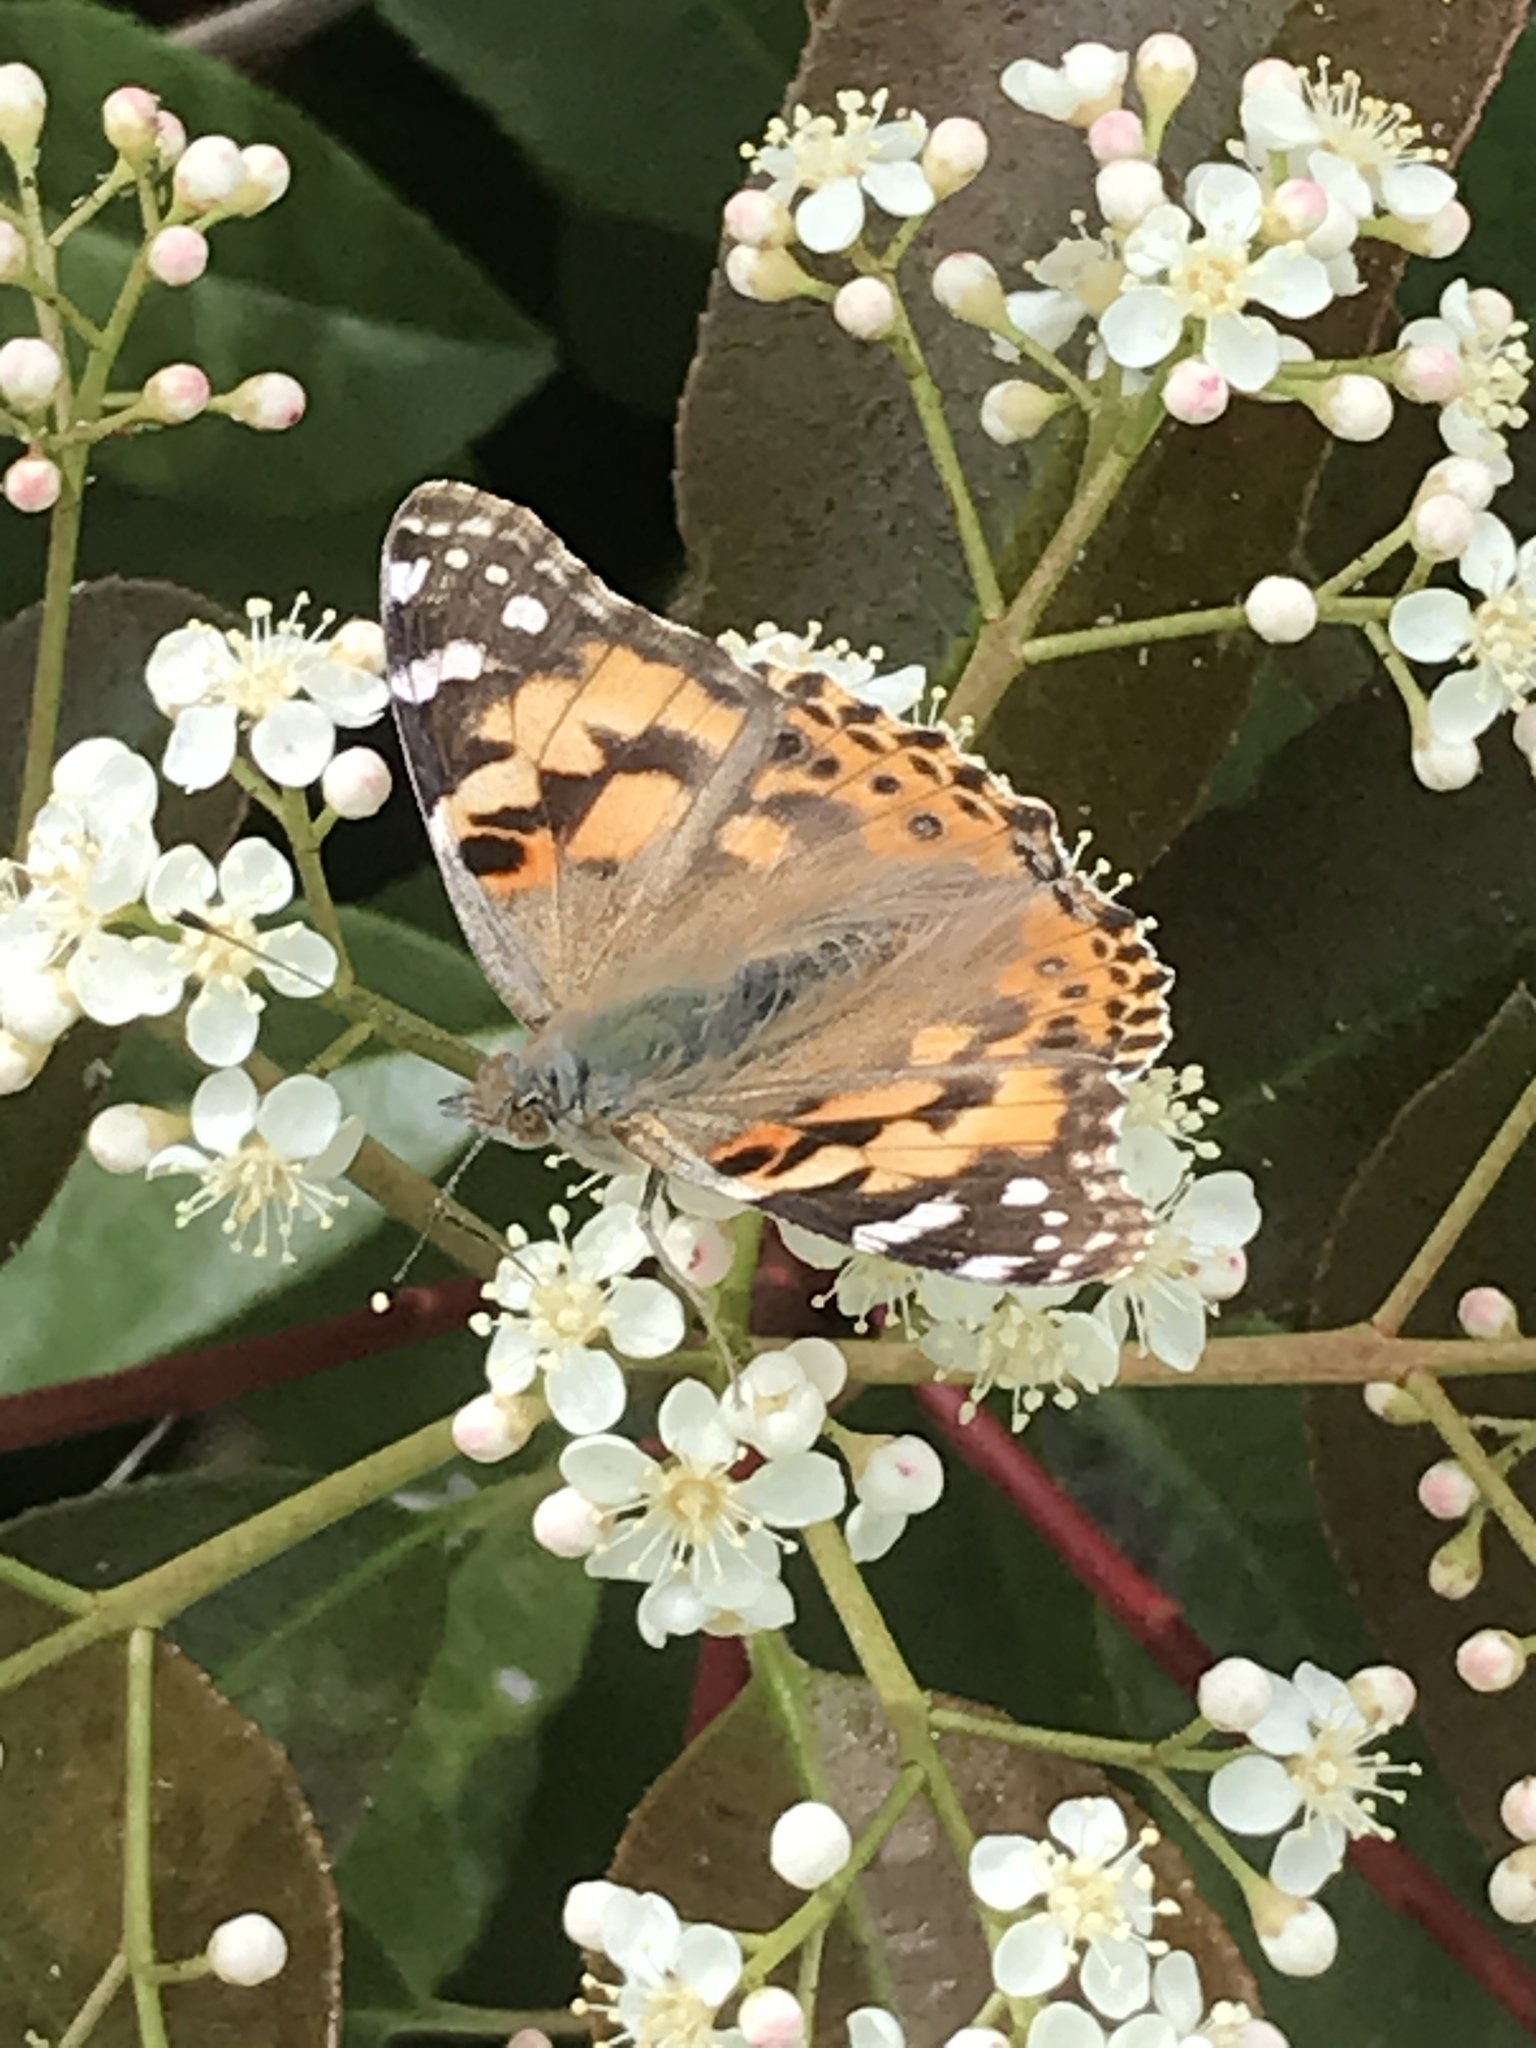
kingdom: Animalia
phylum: Arthropoda
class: Insecta
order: Lepidoptera
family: Nymphalidae
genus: Vanessa
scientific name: Vanessa cardui
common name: Painted lady
